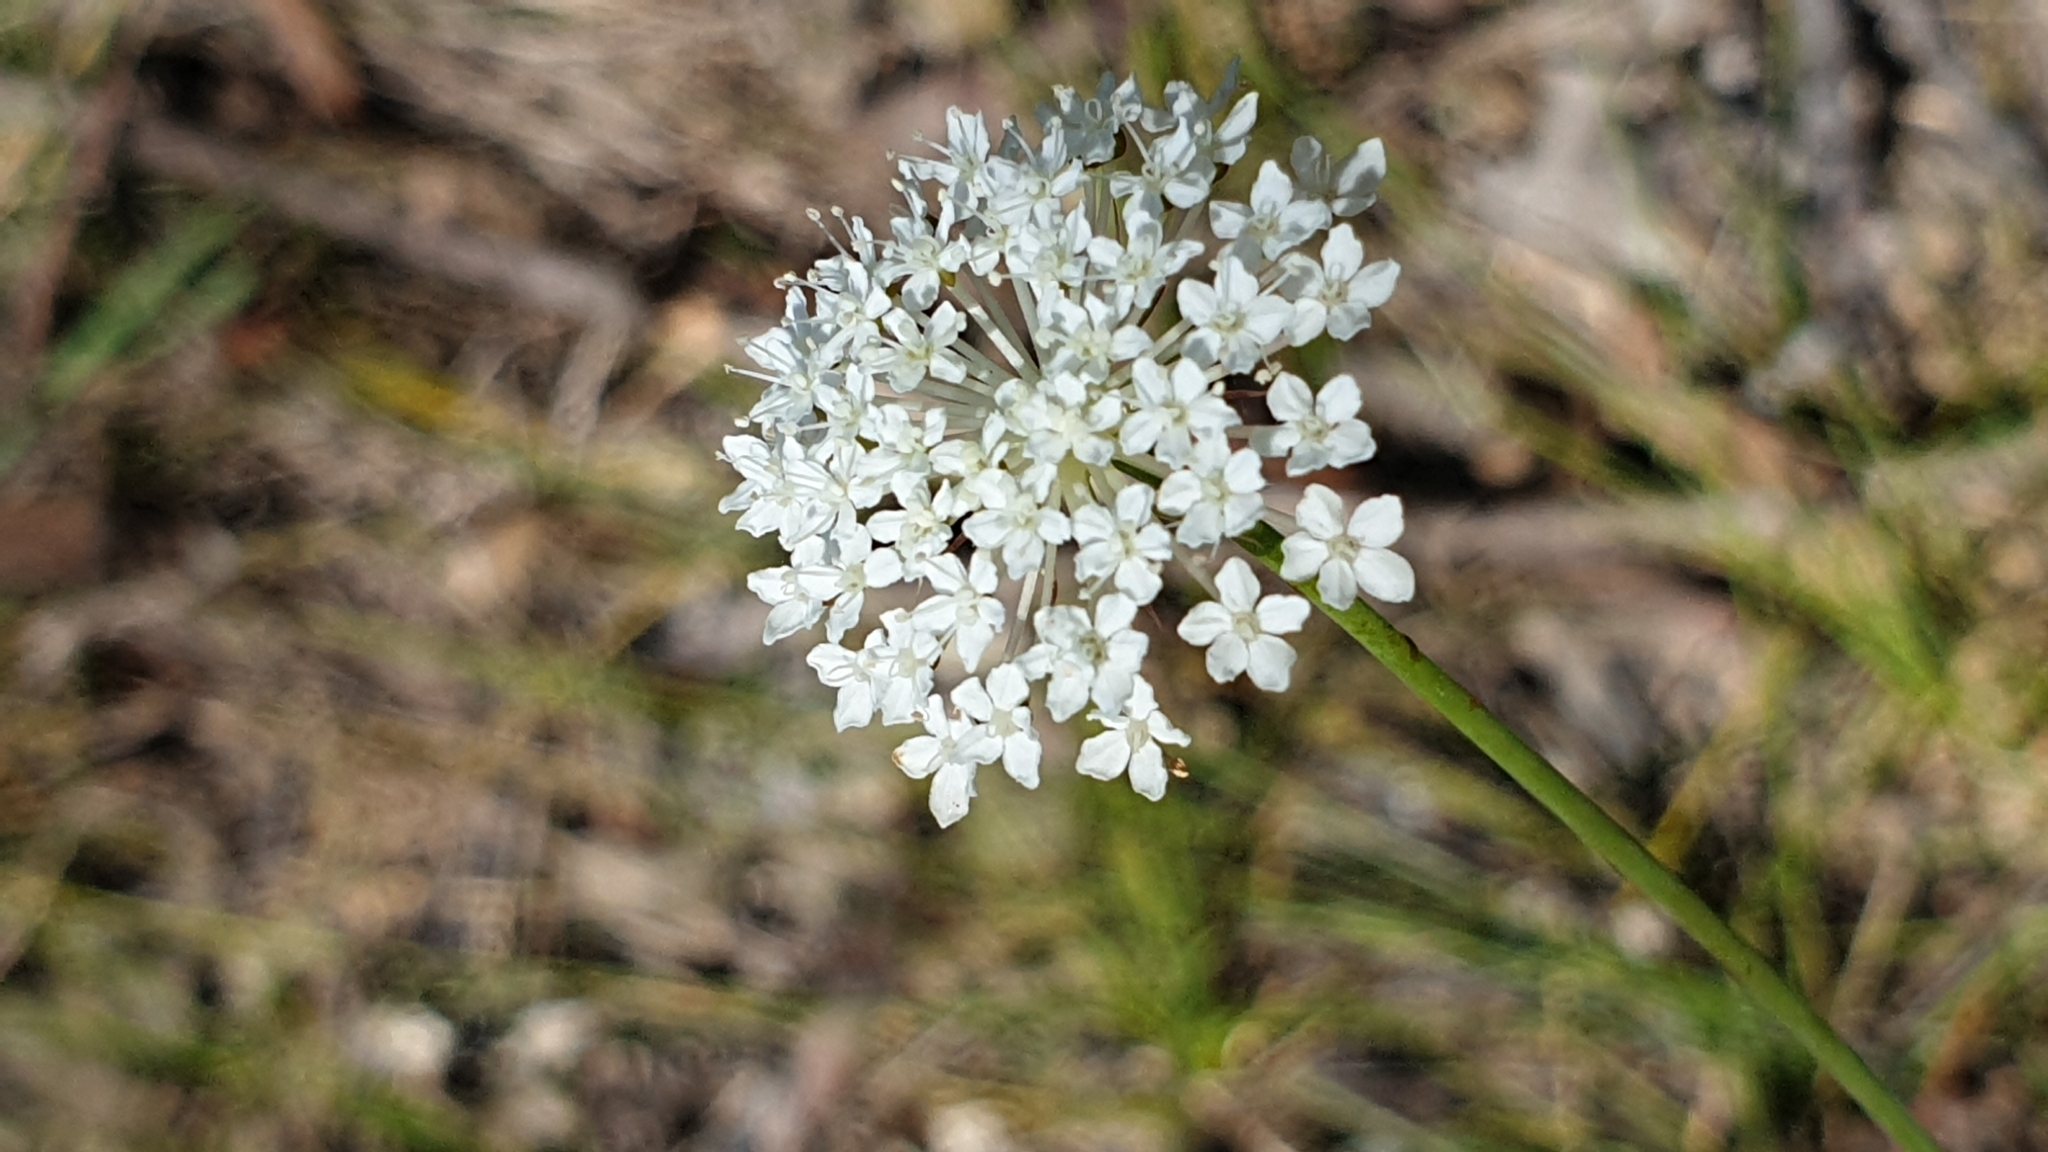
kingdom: Plantae
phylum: Tracheophyta
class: Magnoliopsida
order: Apiales
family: Araliaceae
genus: Trachymene
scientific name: Trachymene incisa
